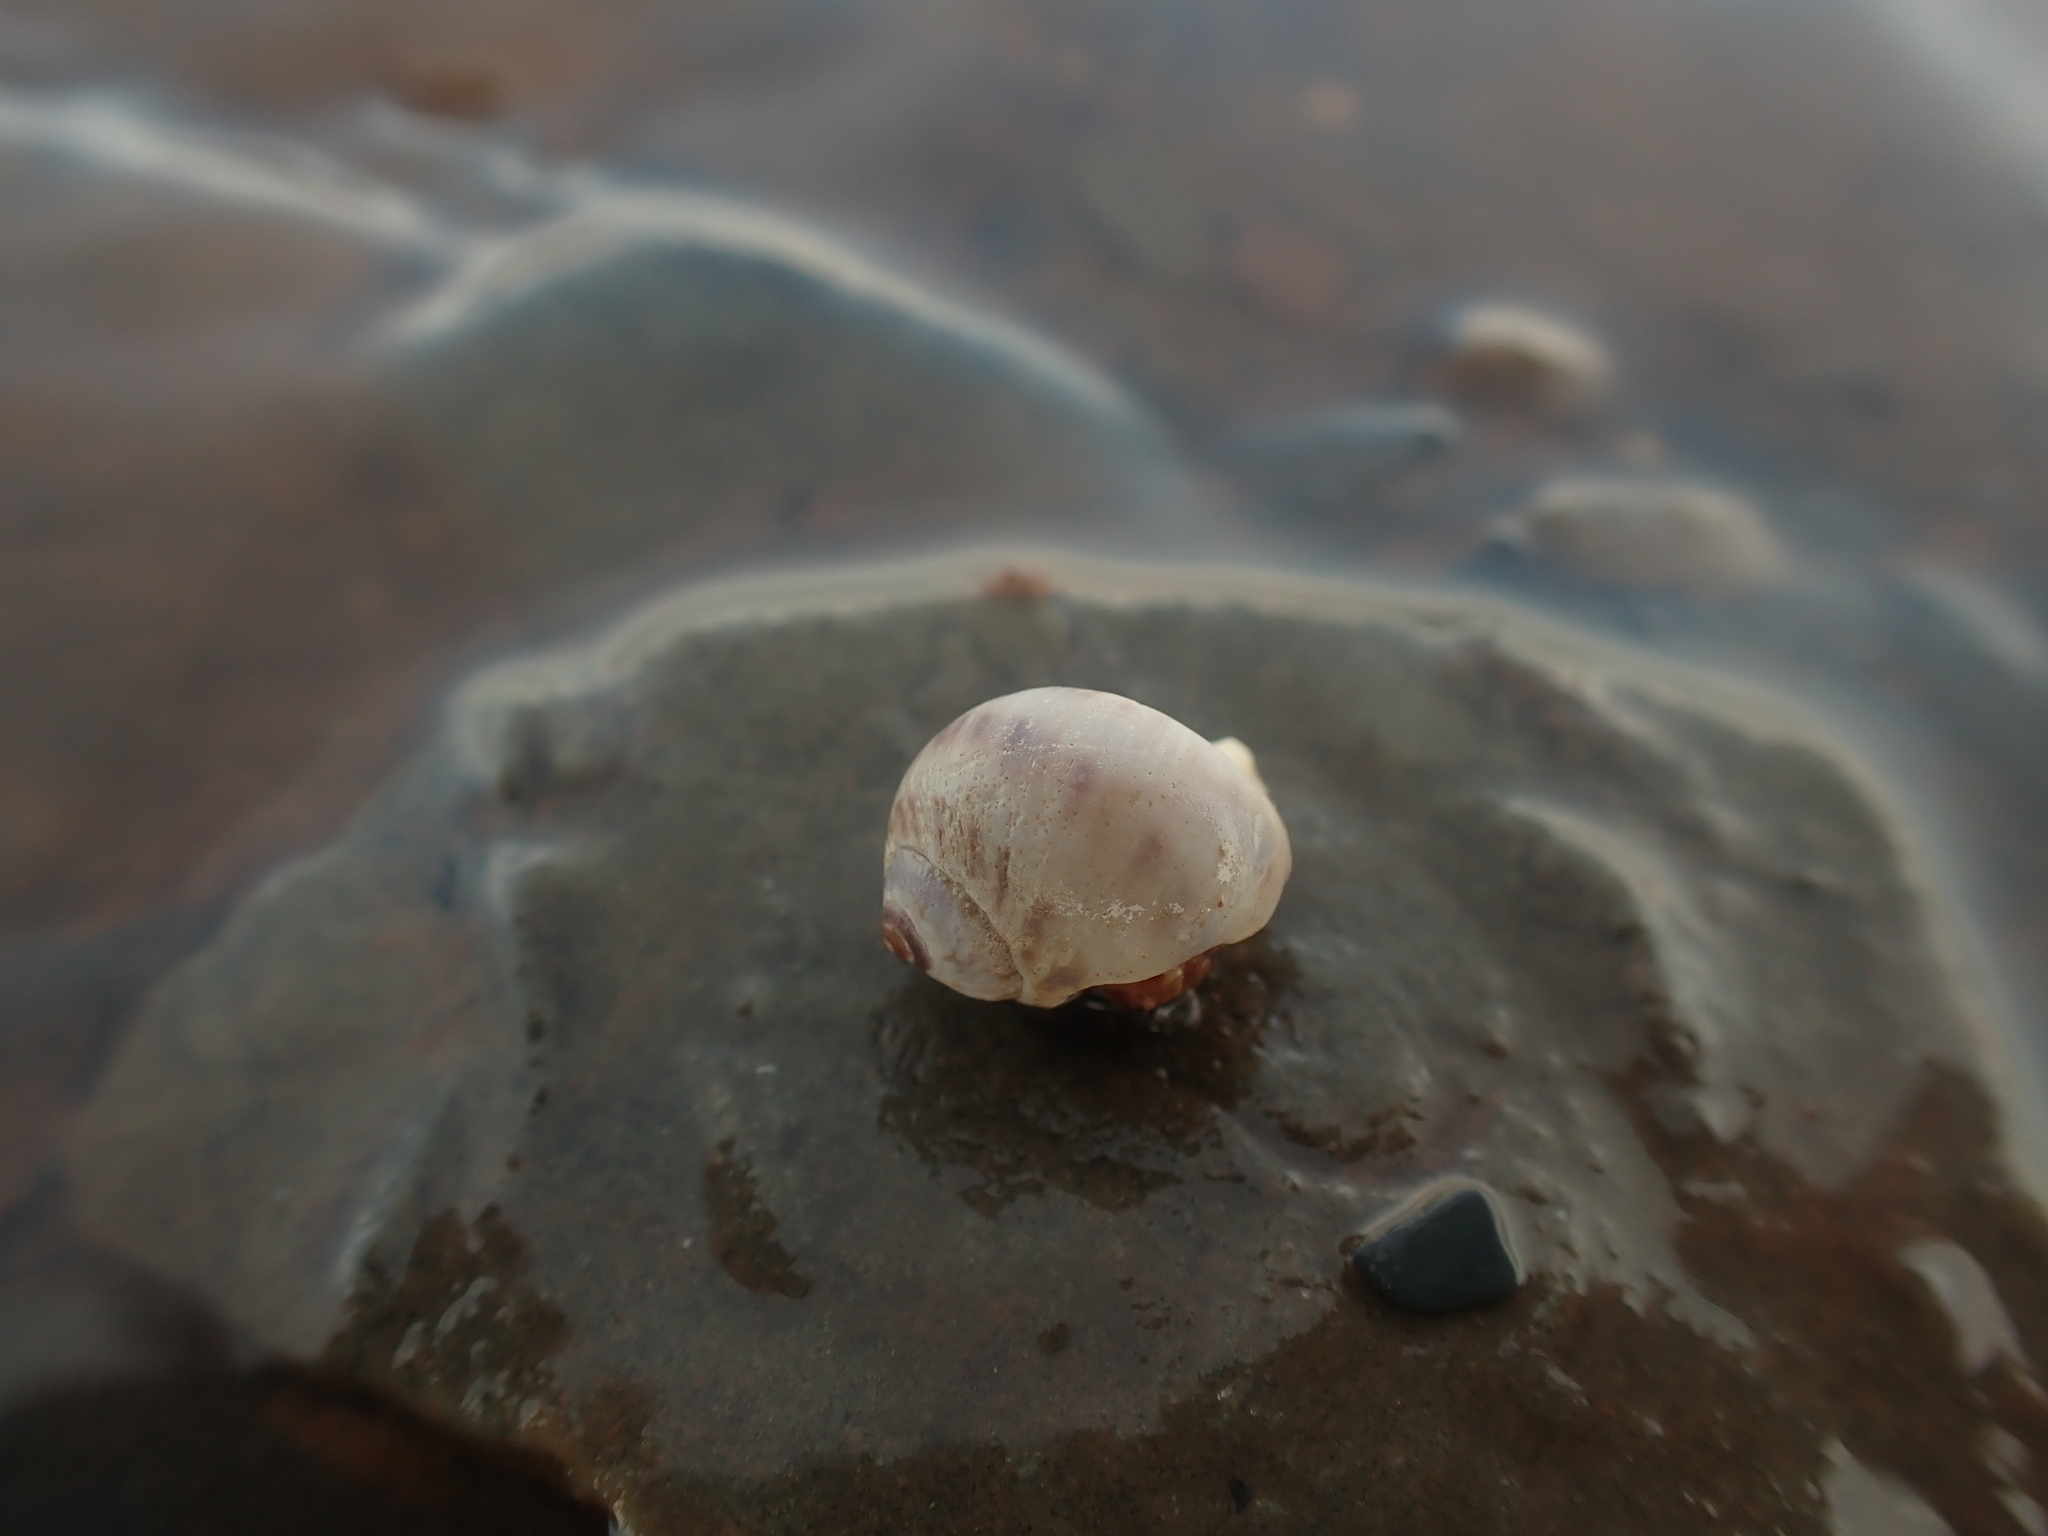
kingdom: Animalia
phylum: Mollusca
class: Gastropoda
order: Littorinimorpha
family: Naticidae
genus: Euspira
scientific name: Euspira triseriata
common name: Spotted moonsnail
